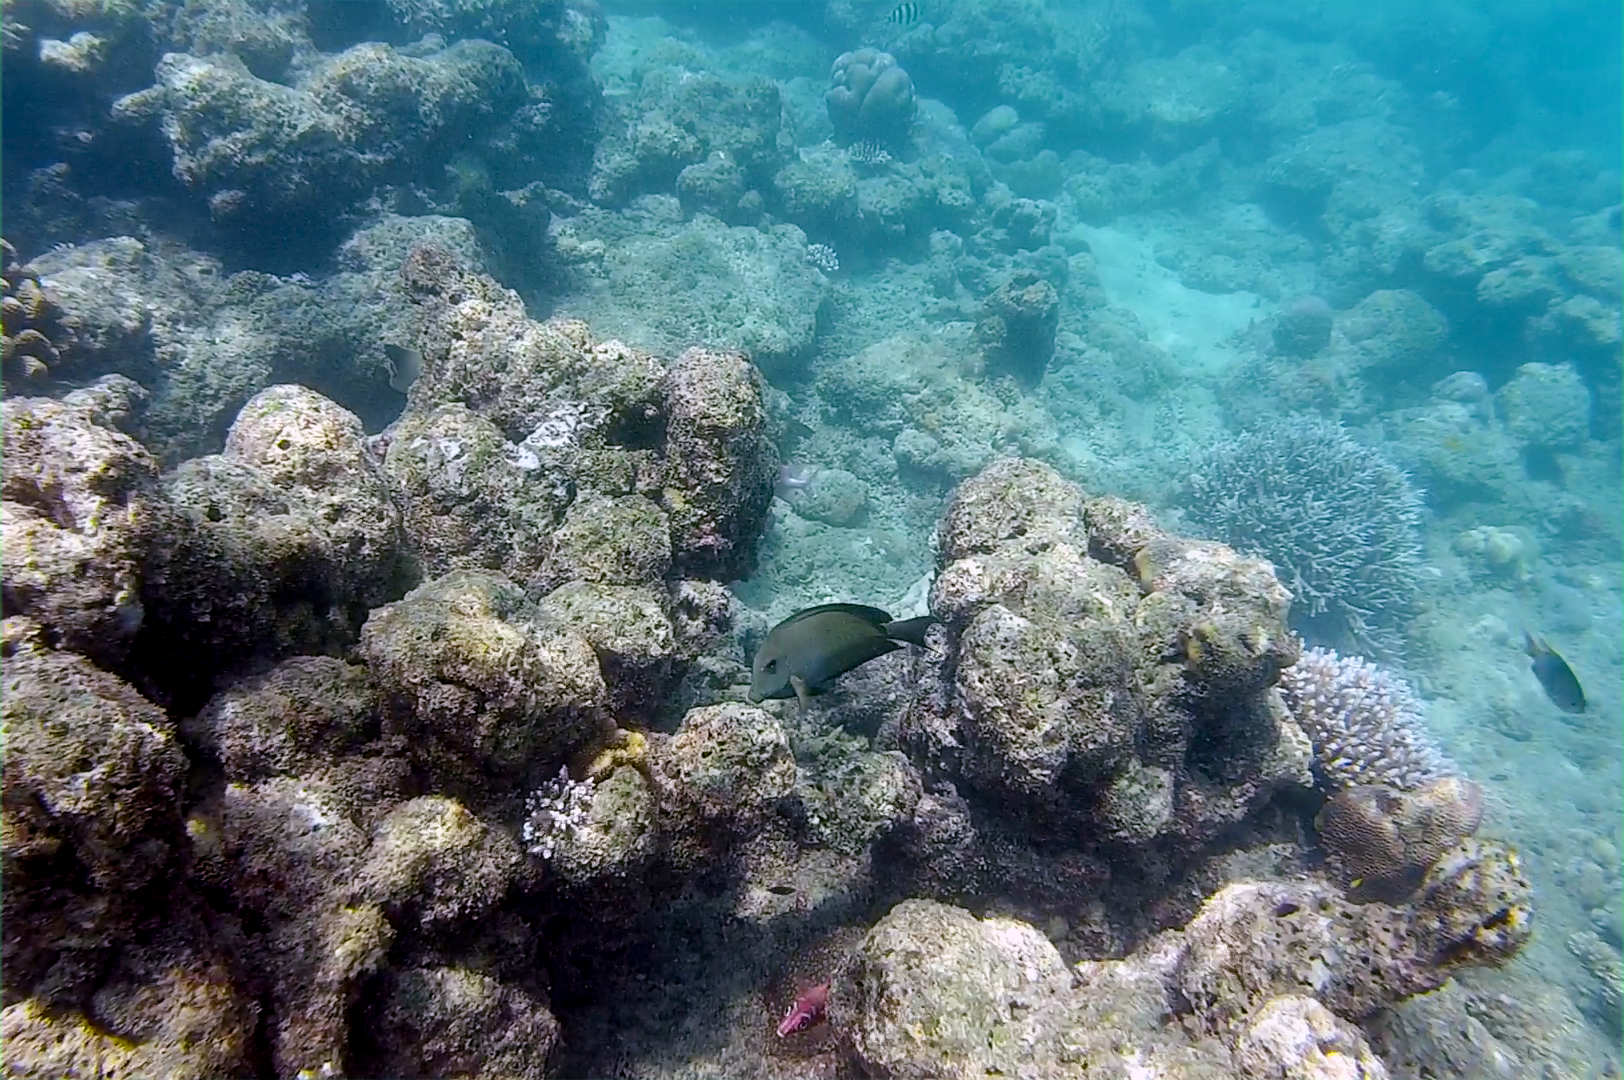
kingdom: Animalia
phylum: Chordata
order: Perciformes
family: Acanthuridae
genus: Ctenochaetus
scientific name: Ctenochaetus striatus
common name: Bristle-toothed surgeonfish
